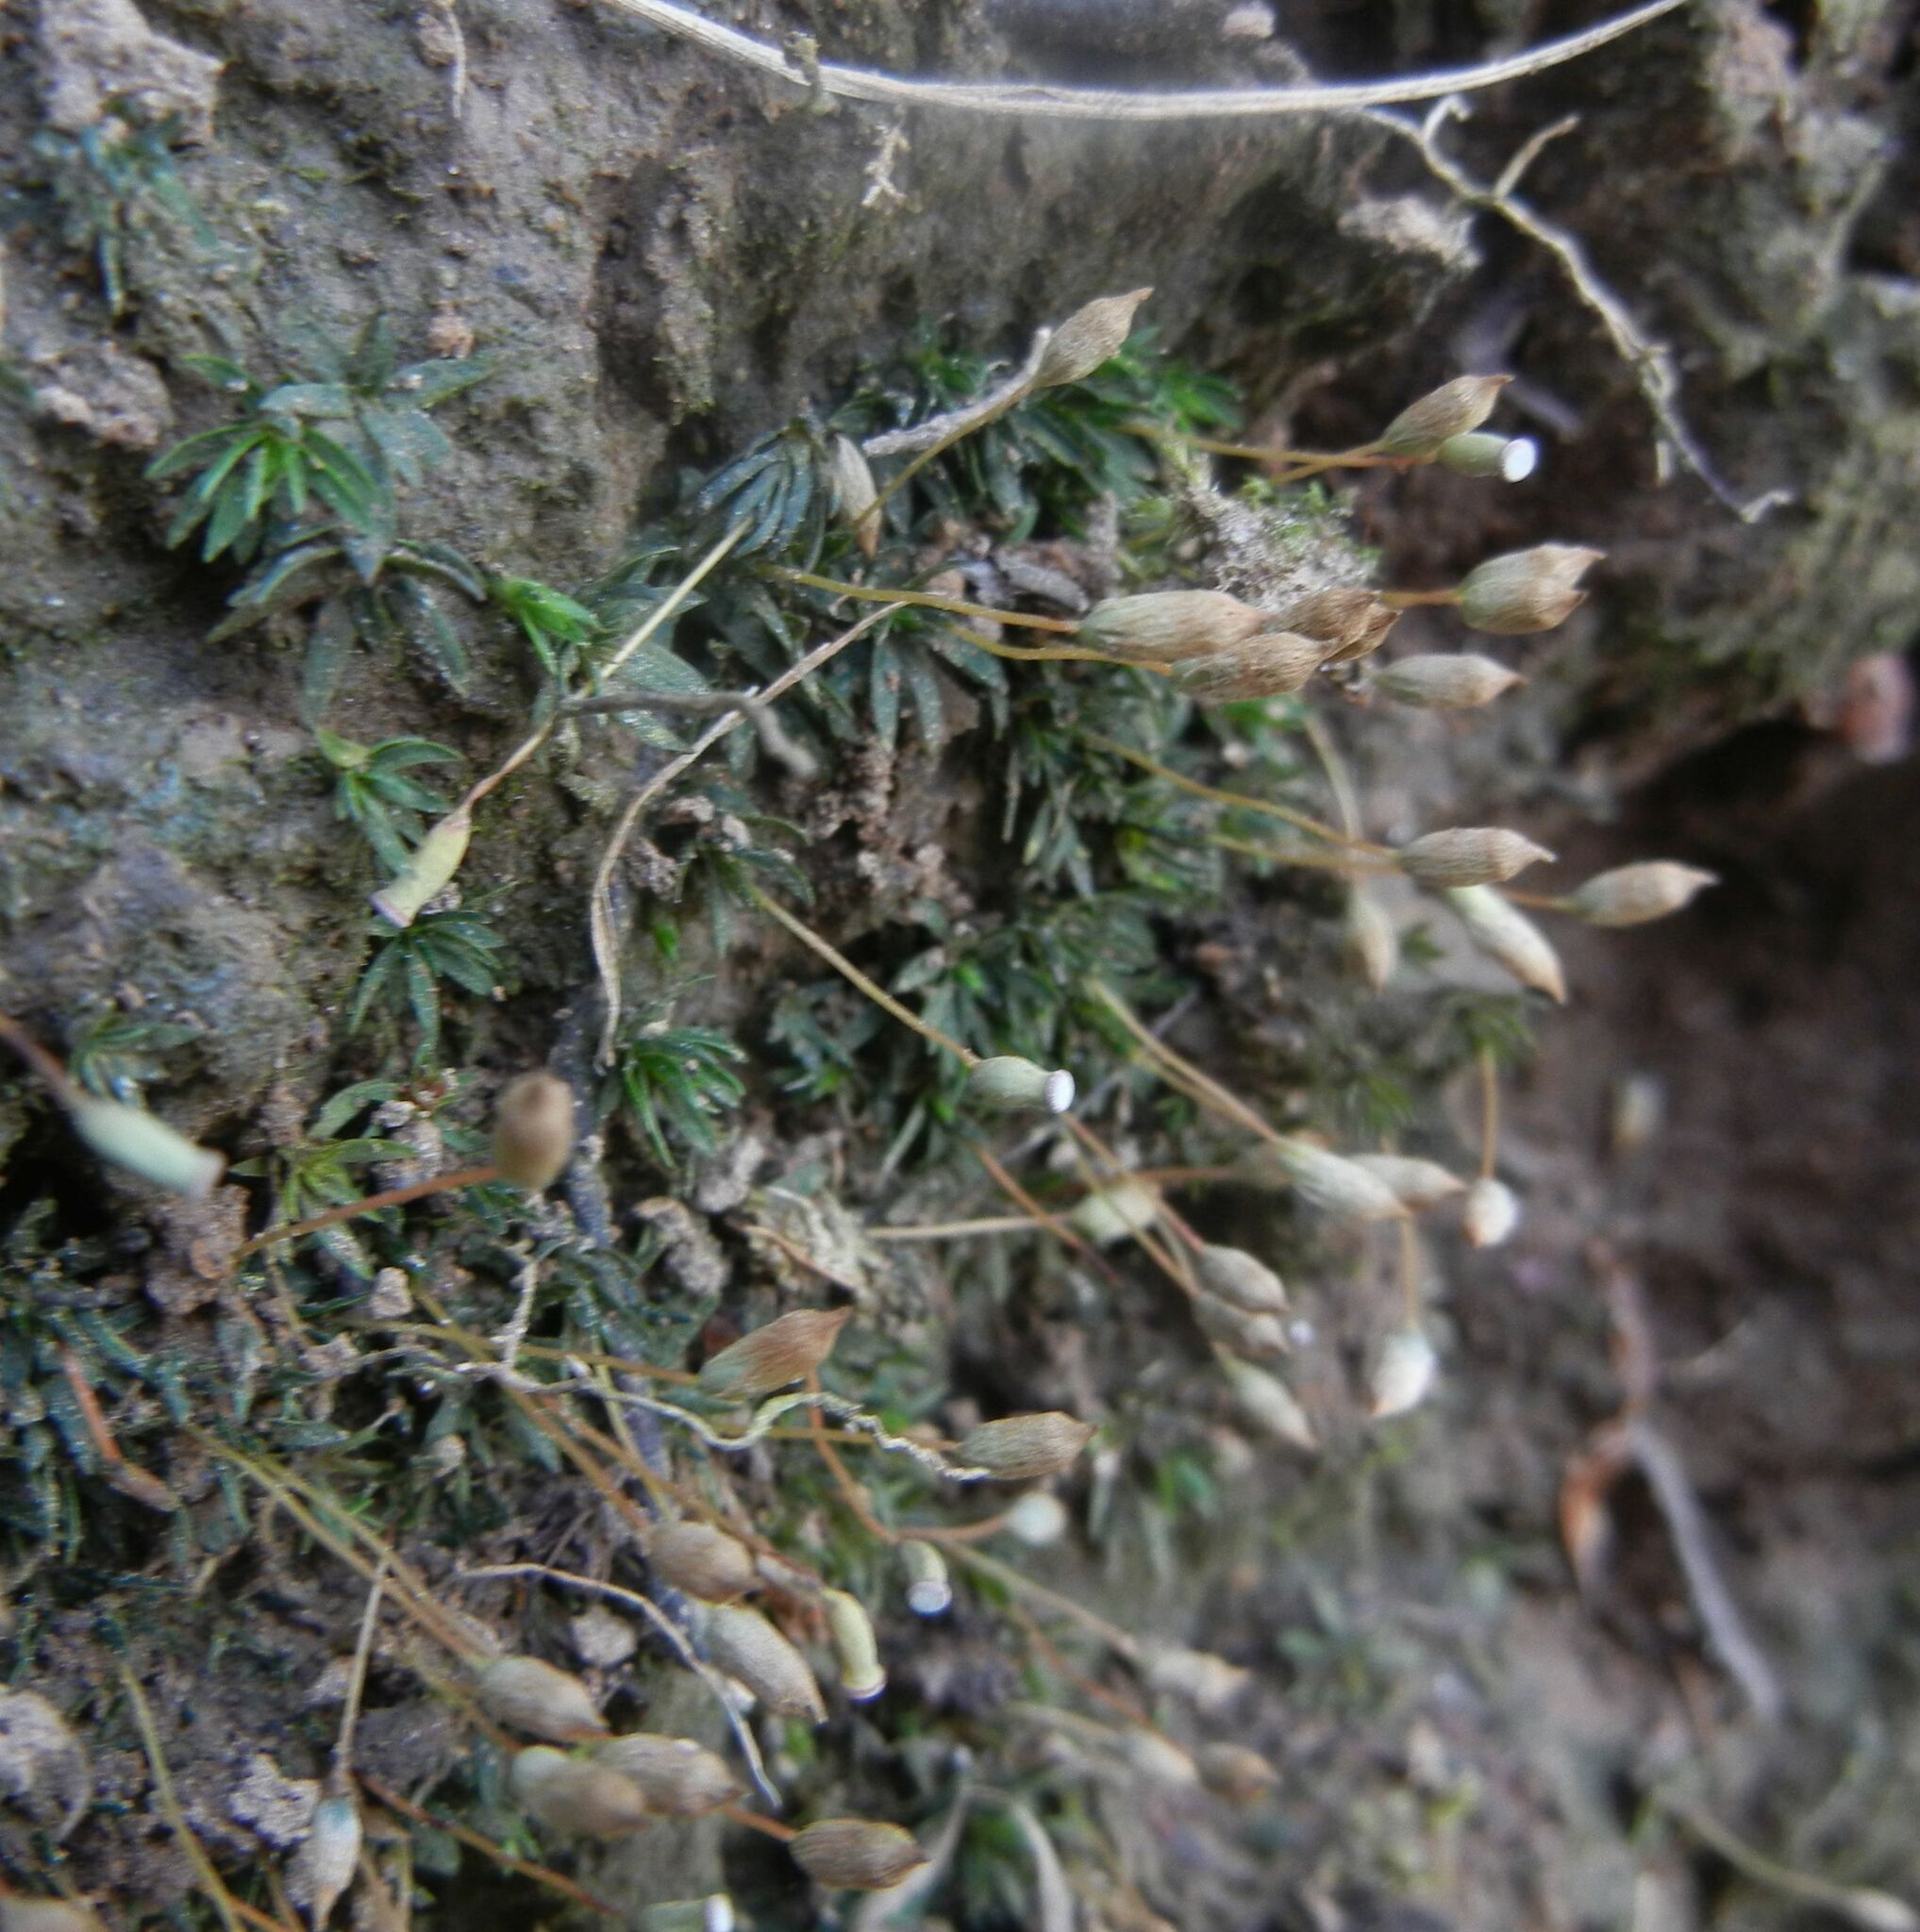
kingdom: Plantae
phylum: Bryophyta
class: Polytrichopsida
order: Polytrichales
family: Polytrichaceae
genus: Pogonatum
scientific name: Pogonatum aloides
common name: Aloe haircap
